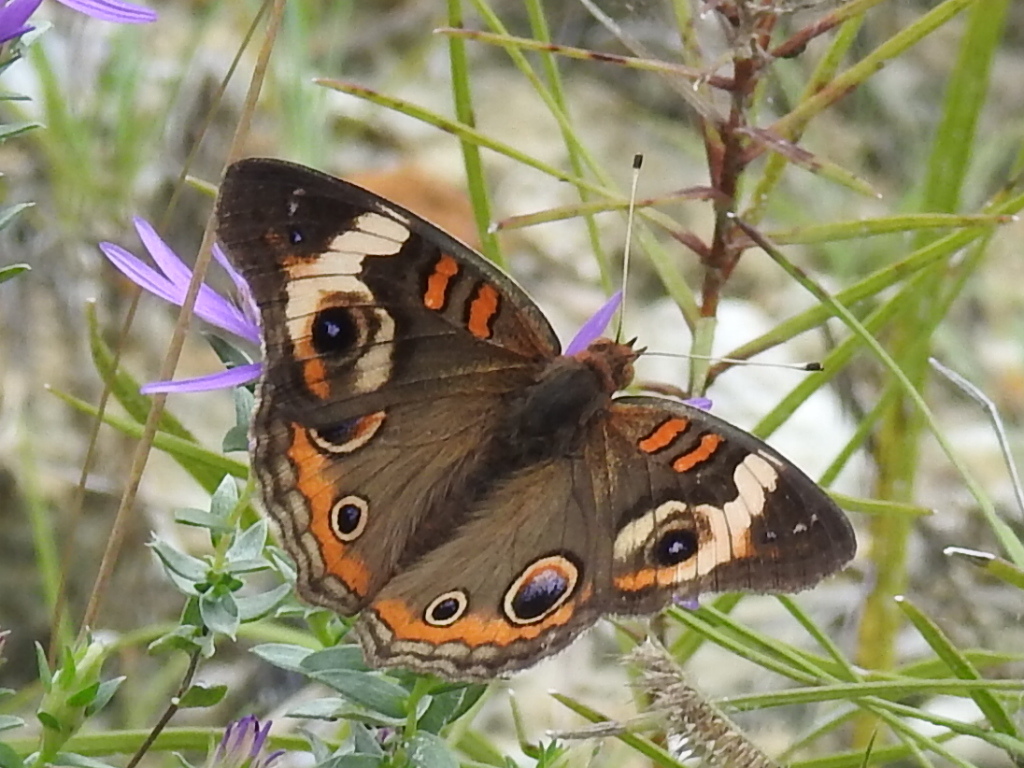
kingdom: Animalia
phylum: Arthropoda
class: Insecta
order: Lepidoptera
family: Nymphalidae
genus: Junonia
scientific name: Junonia coenia
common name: Common buckeye
